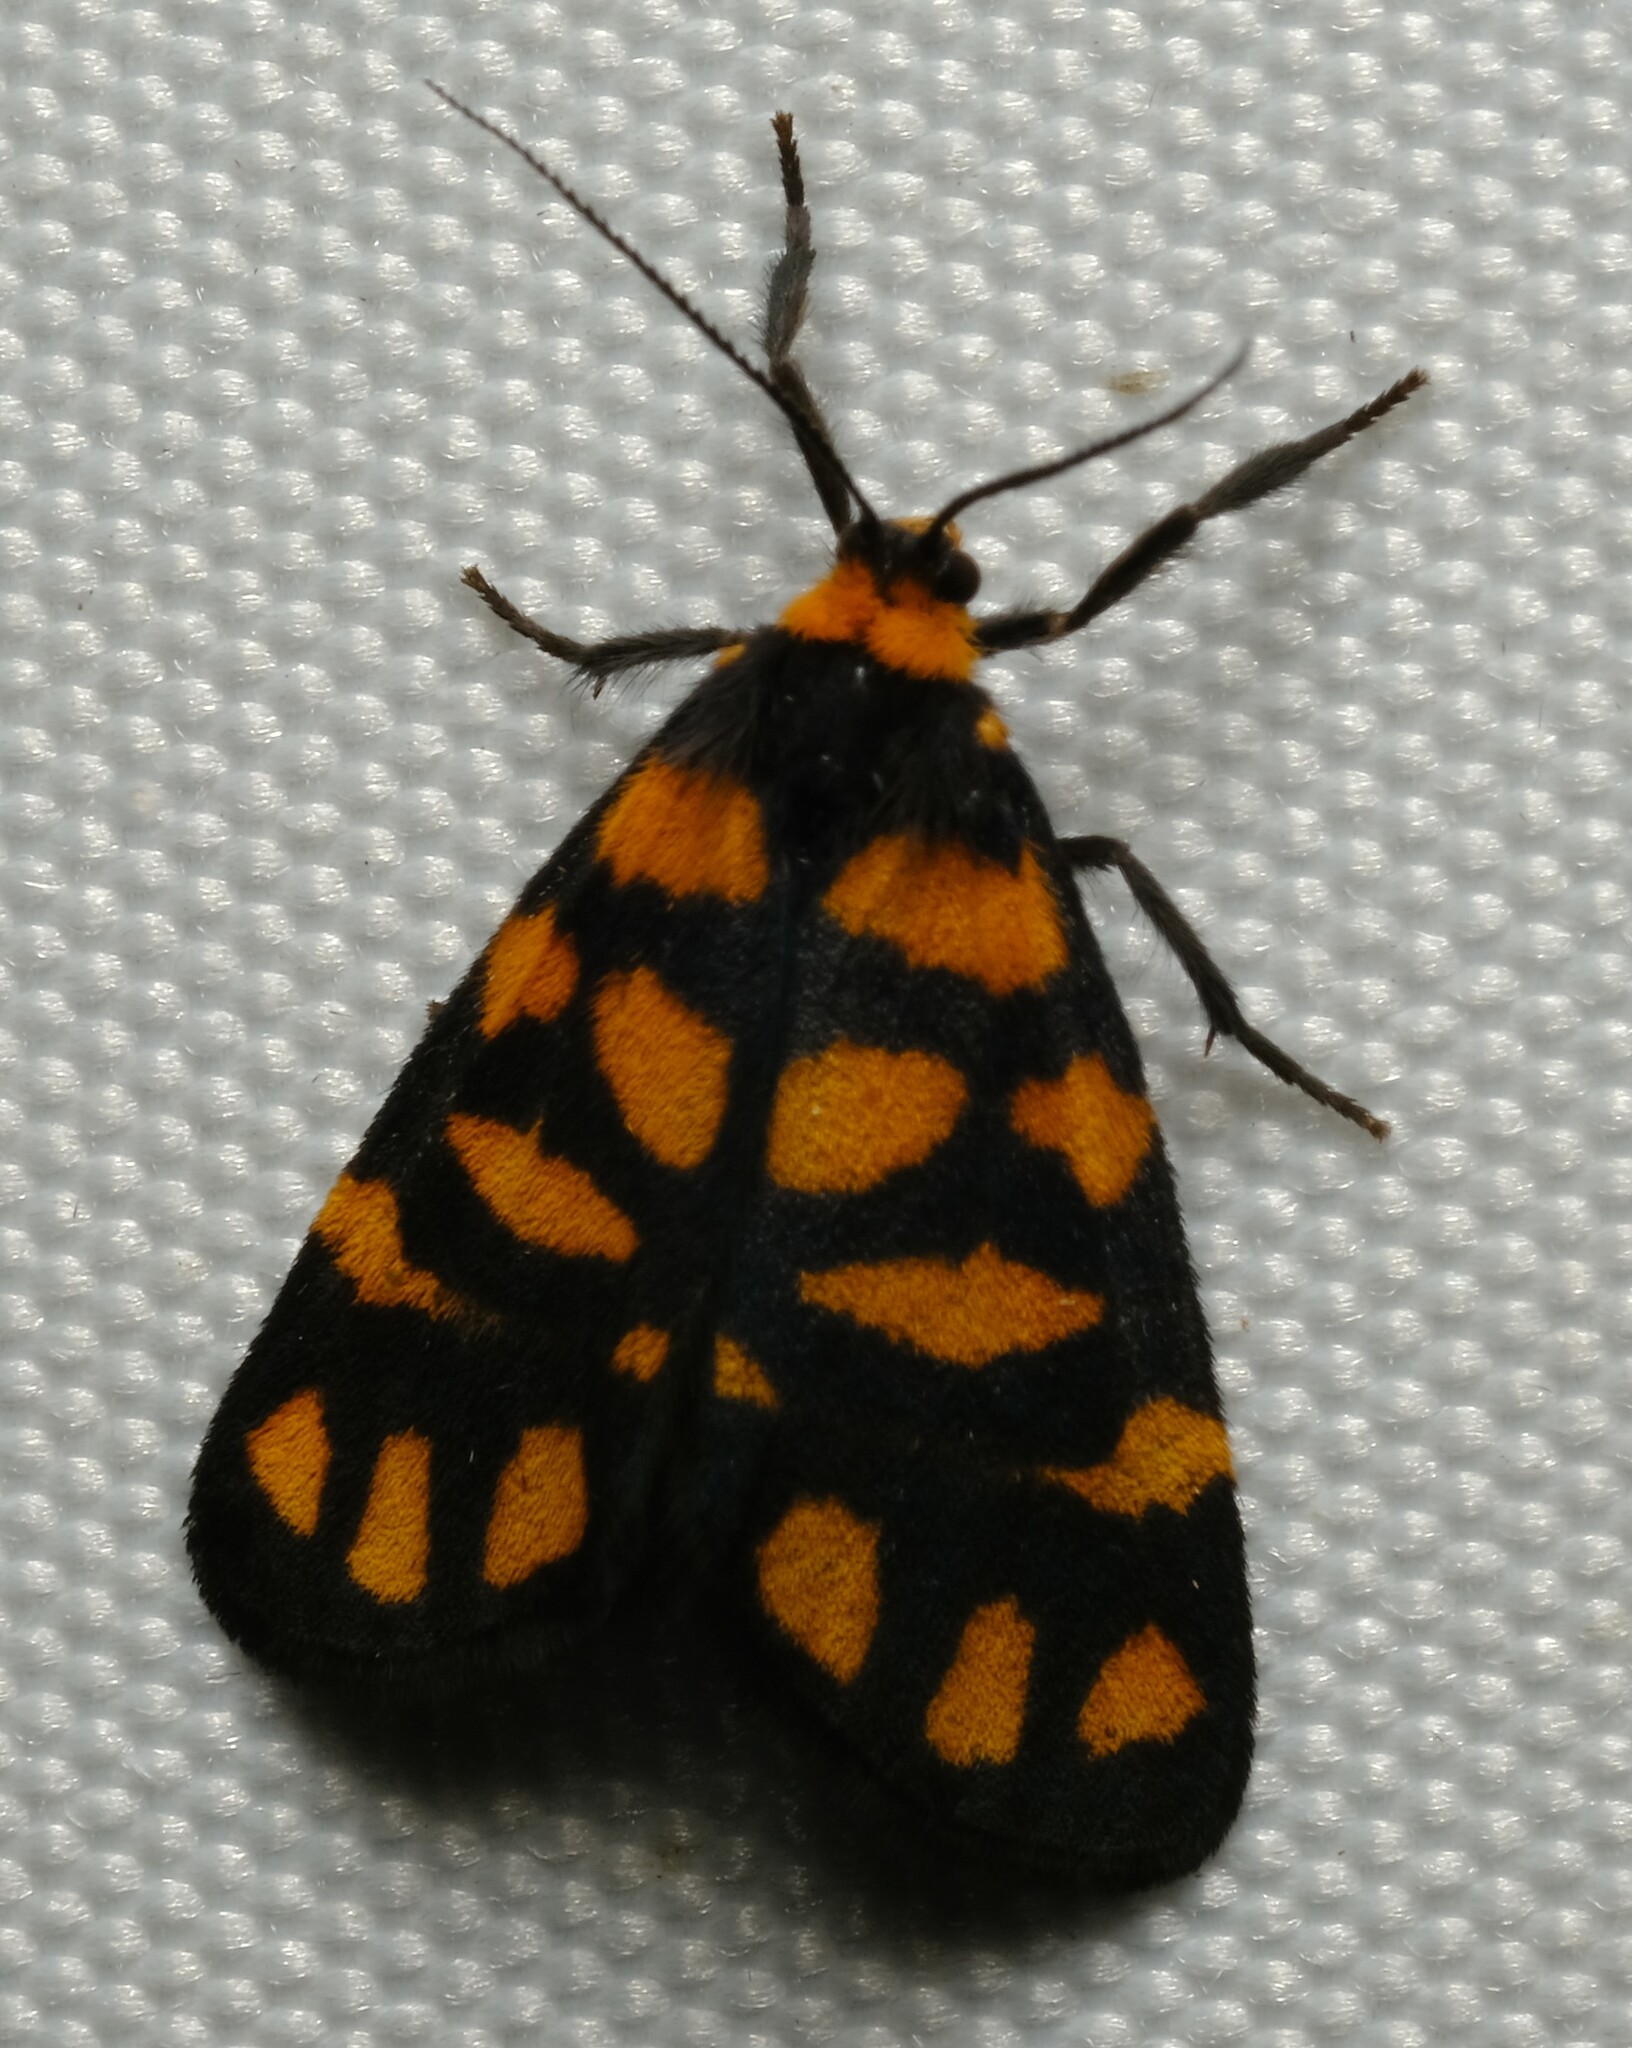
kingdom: Animalia
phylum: Arthropoda
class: Insecta
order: Lepidoptera
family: Erebidae
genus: Asura
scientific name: Asura lydia
